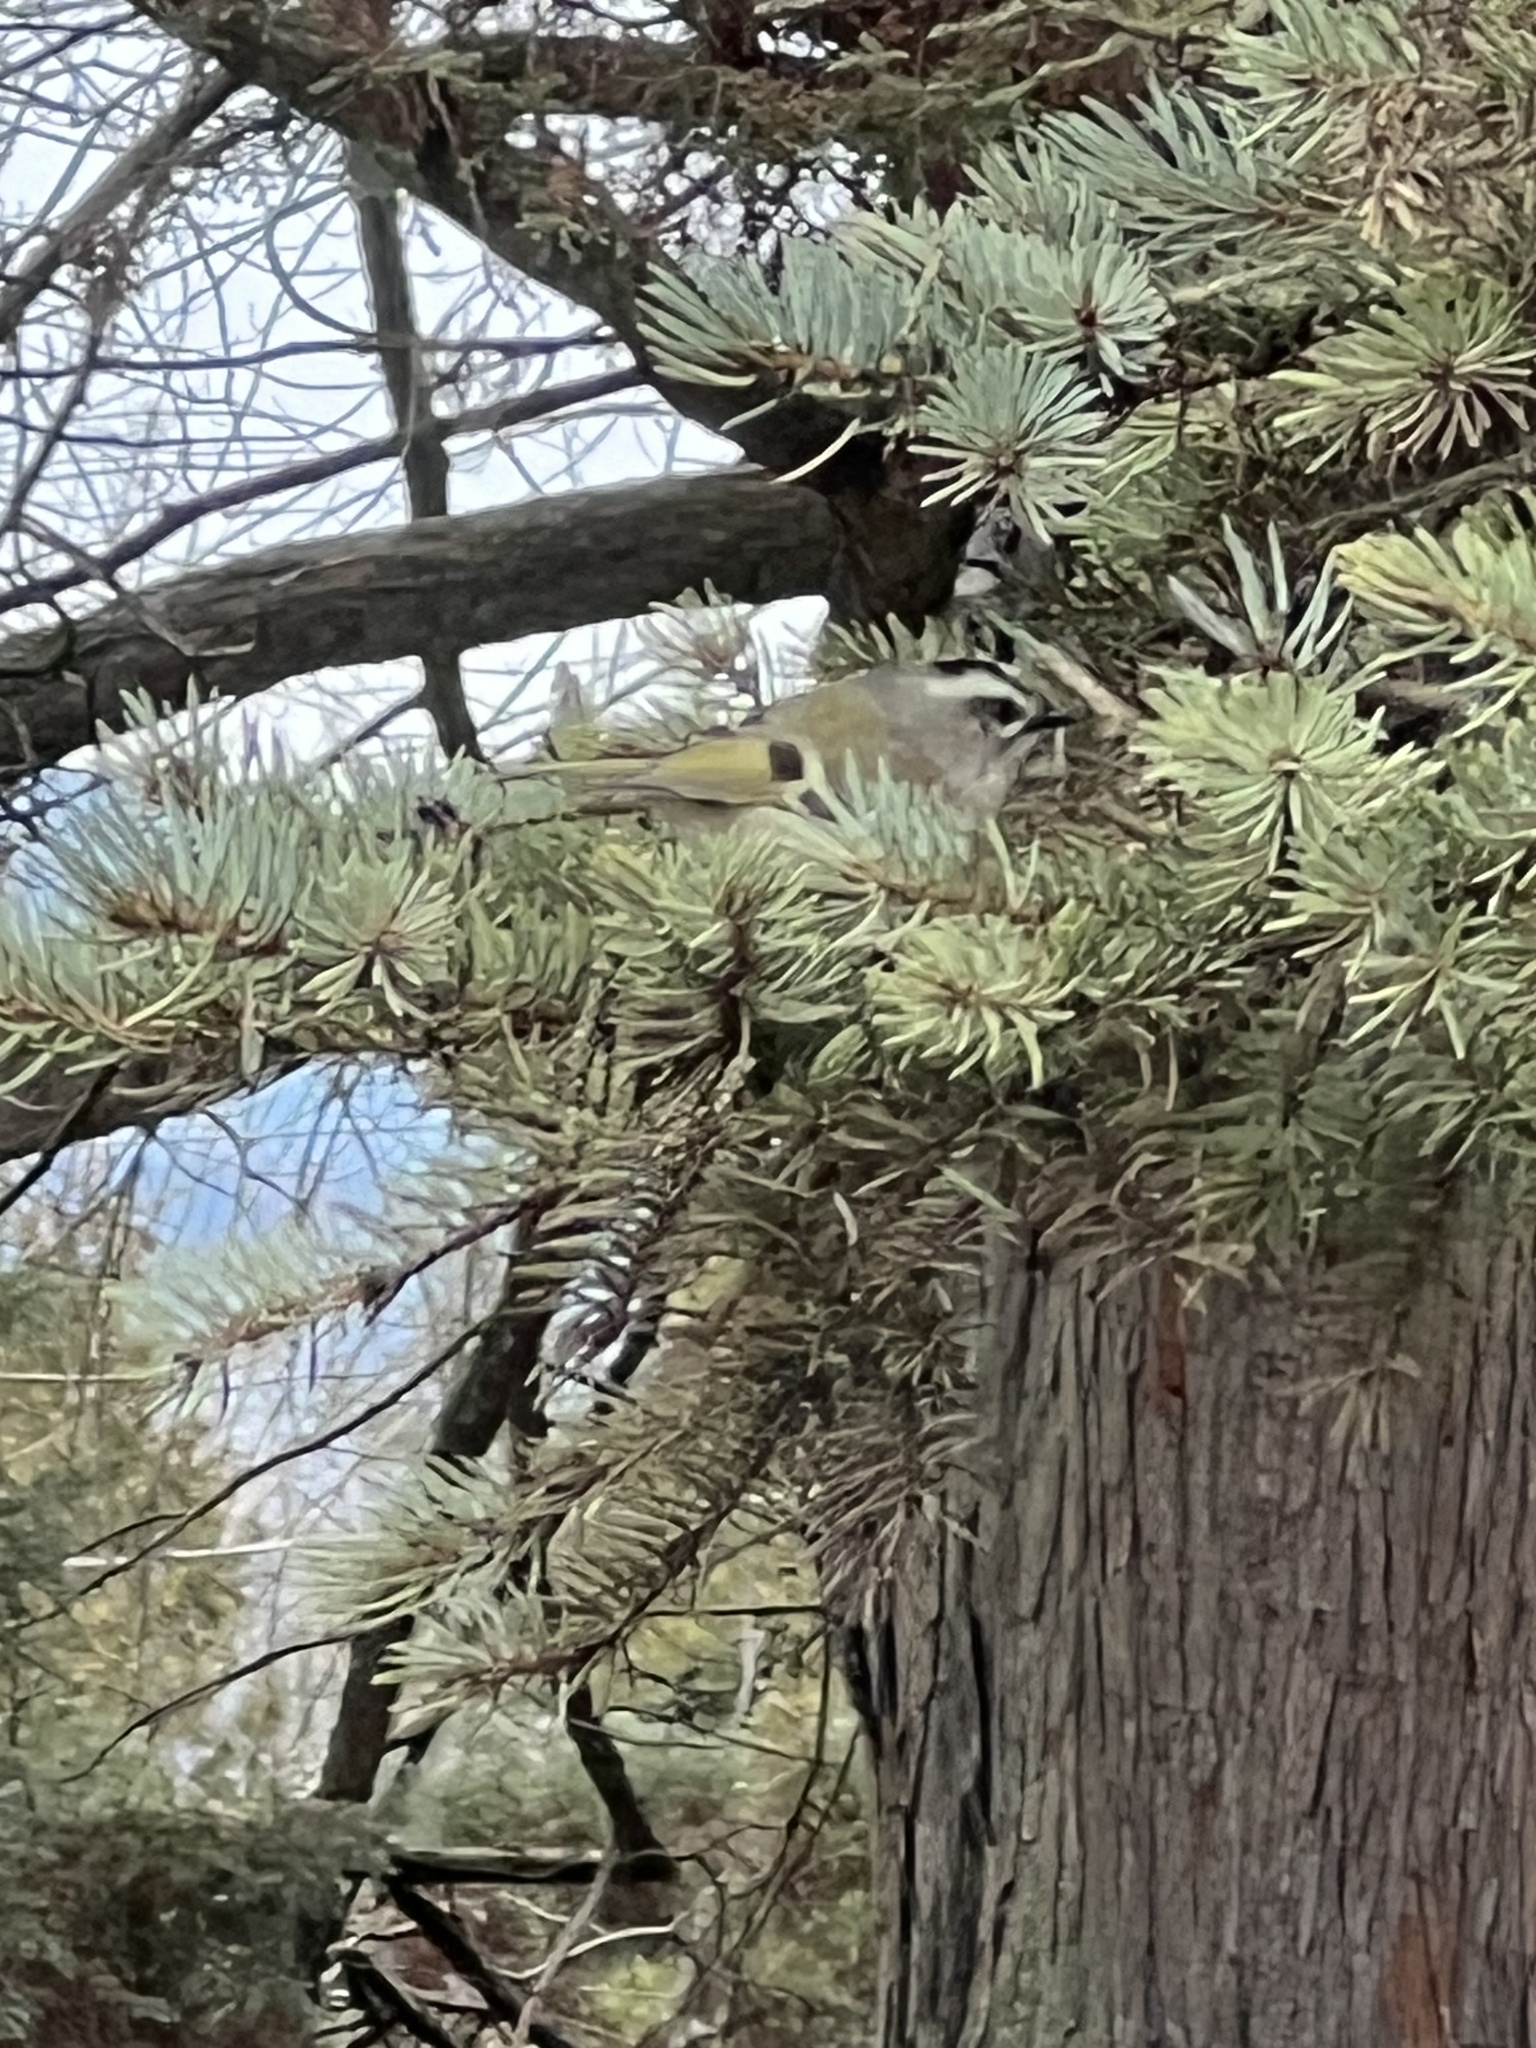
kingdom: Animalia
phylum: Chordata
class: Aves
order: Passeriformes
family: Regulidae
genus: Regulus
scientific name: Regulus satrapa
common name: Golden-crowned kinglet
